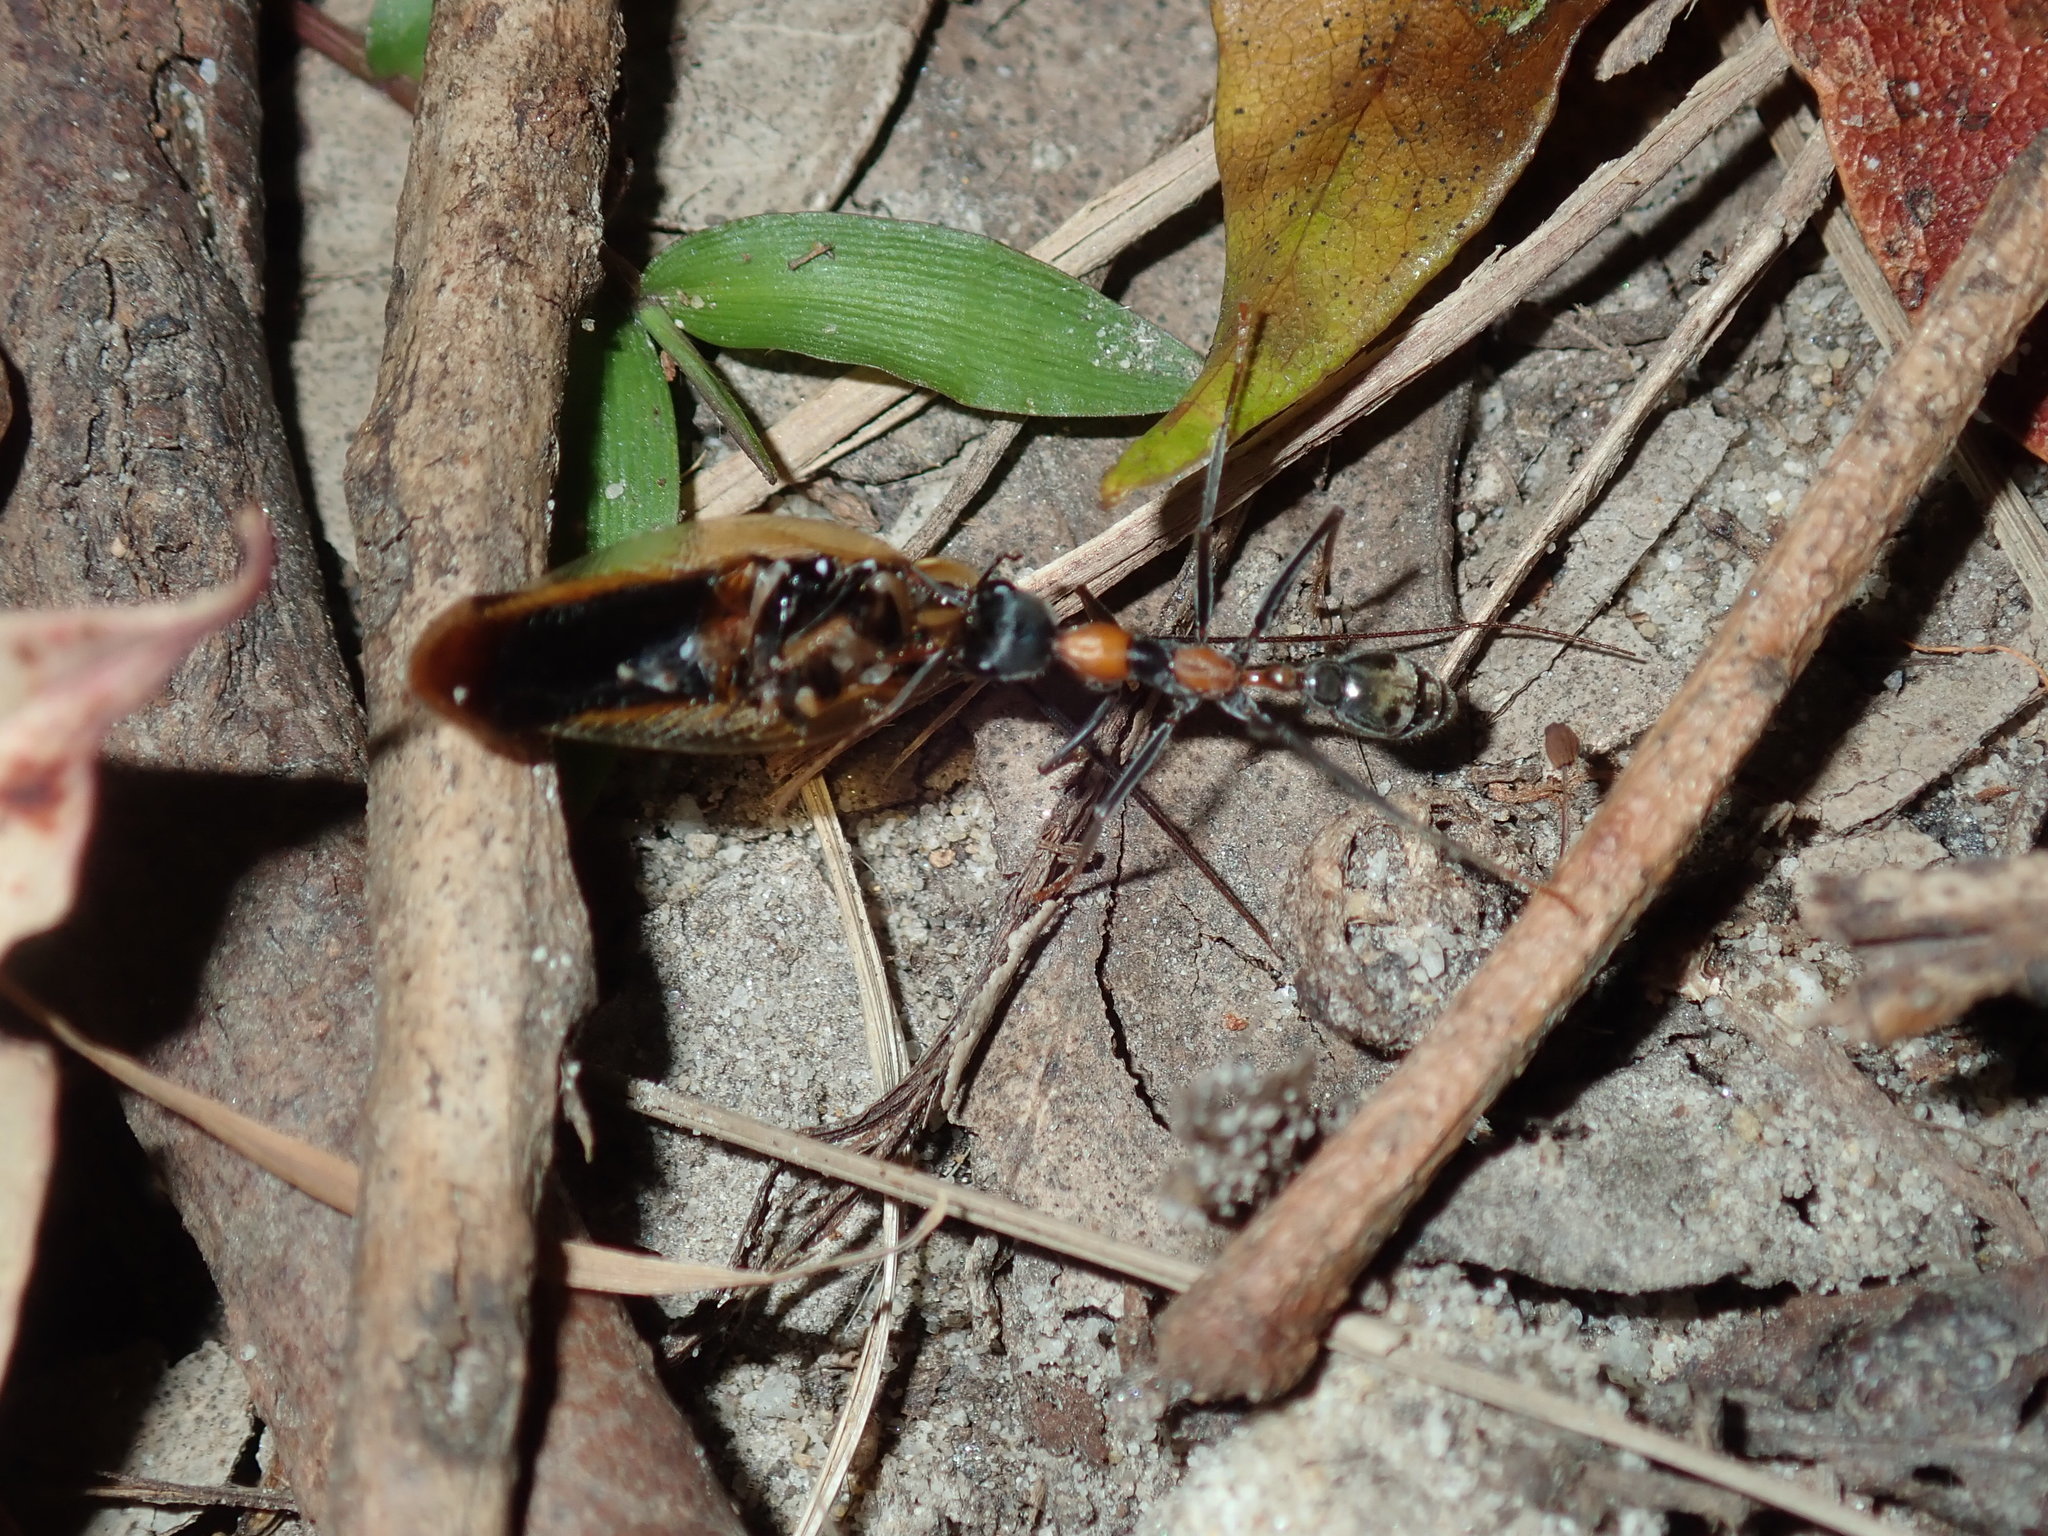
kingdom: Animalia
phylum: Arthropoda
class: Insecta
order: Hymenoptera
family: Formicidae
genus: Myrmecia
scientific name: Myrmecia nigrocincta
